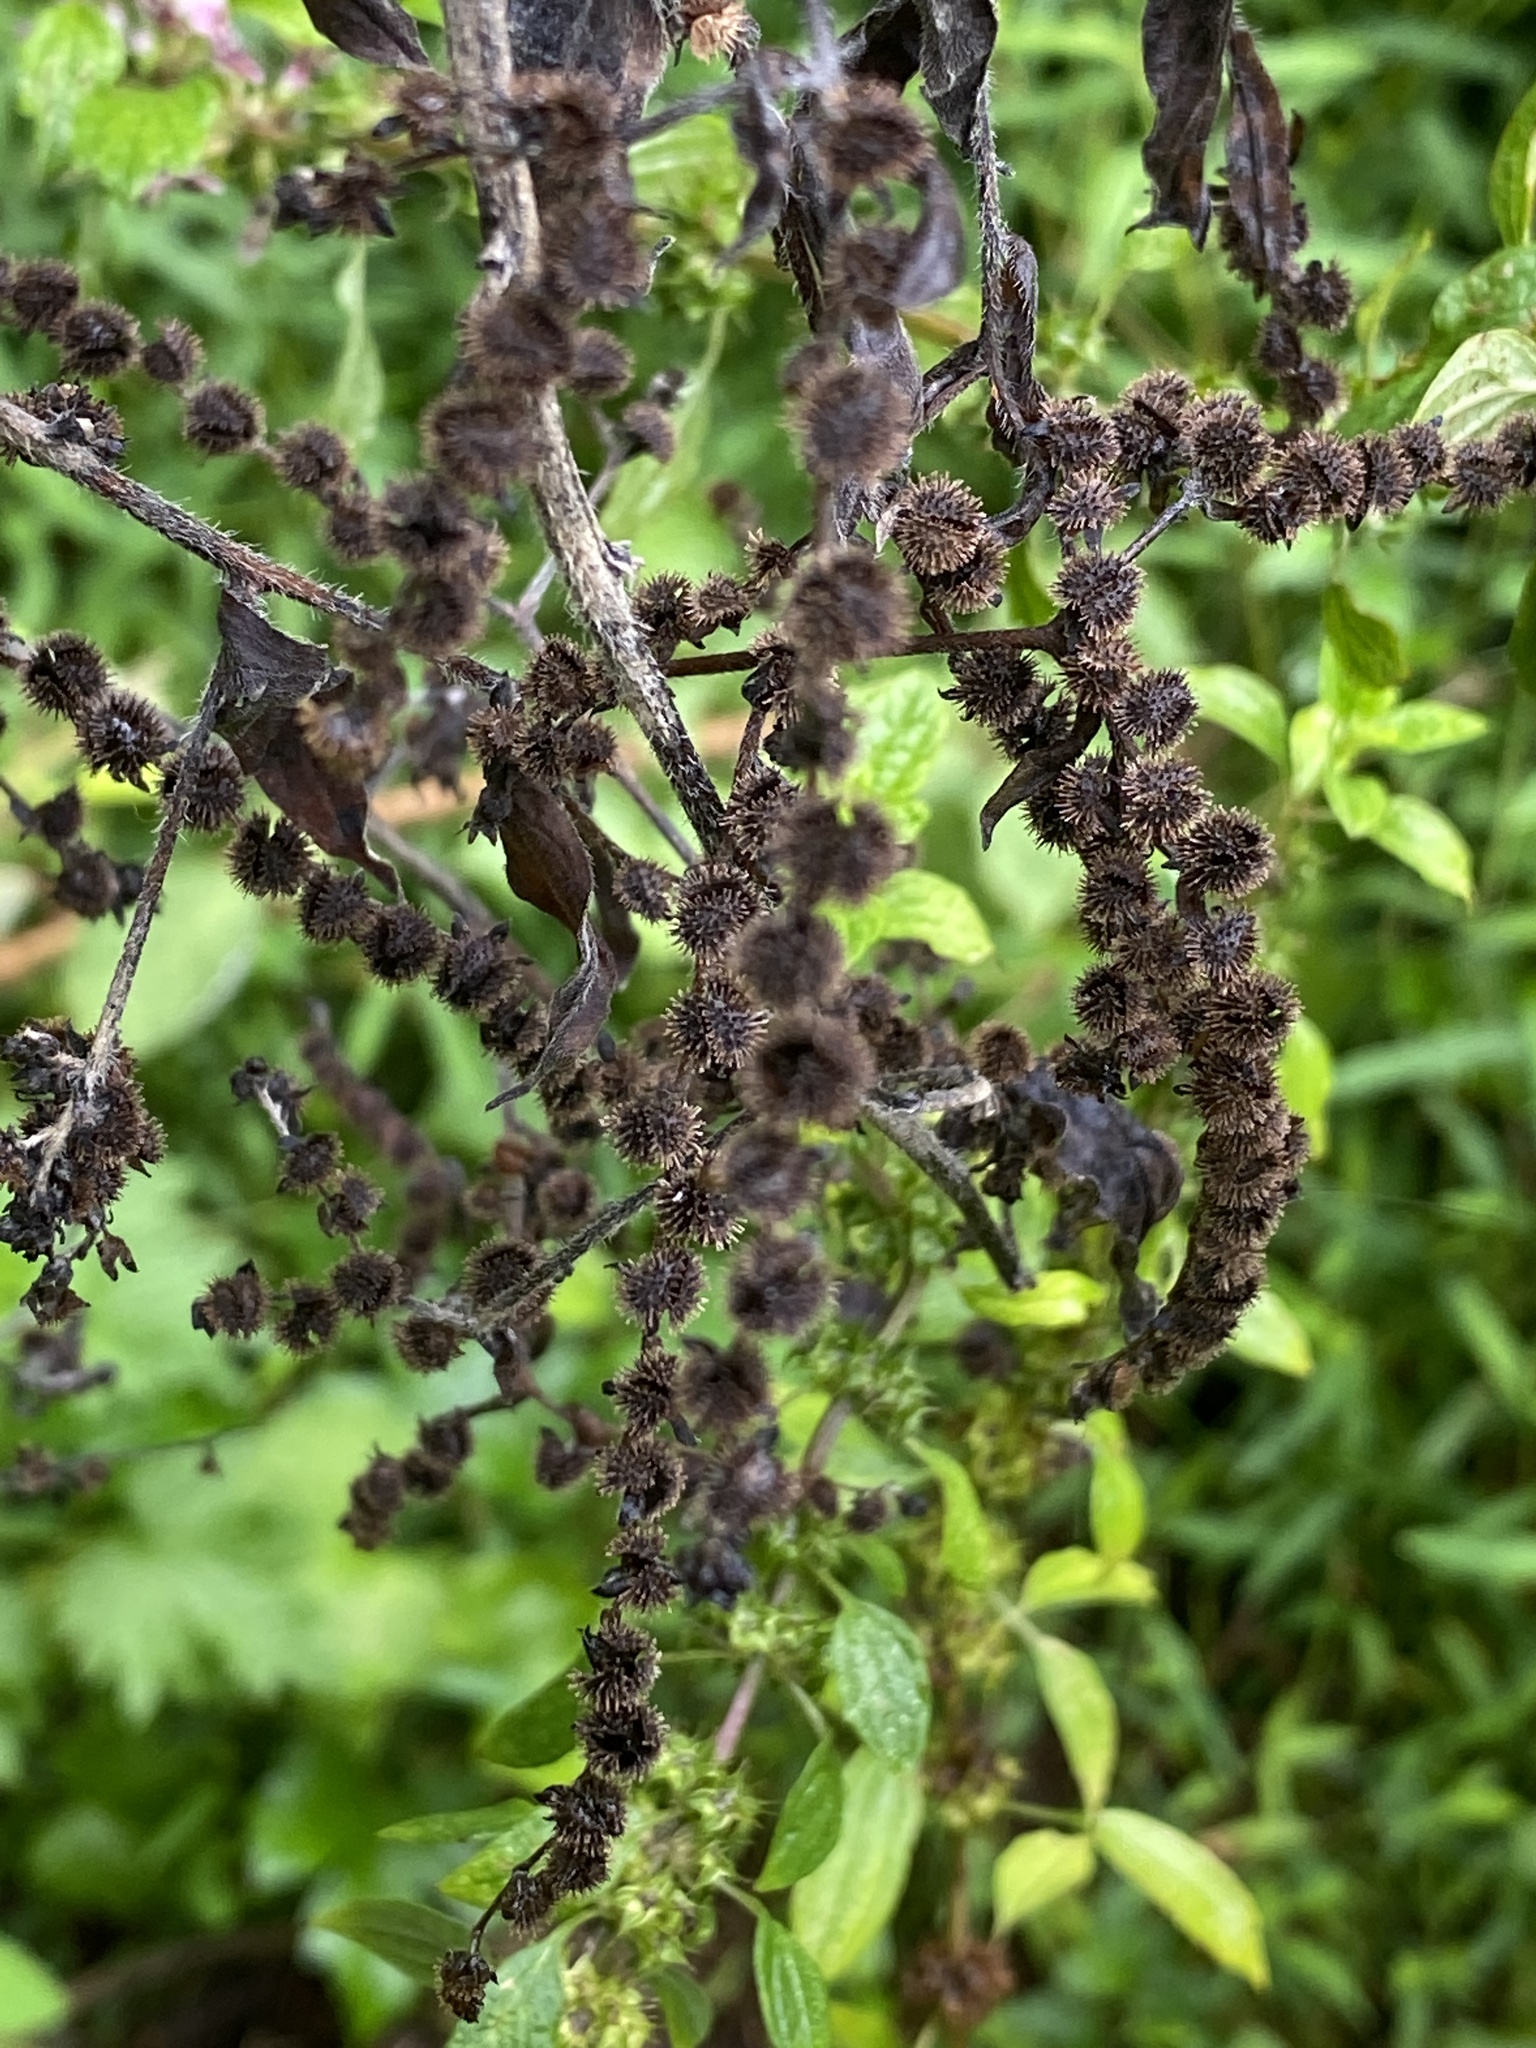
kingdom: Plantae
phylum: Tracheophyta
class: Magnoliopsida
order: Boraginales
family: Boraginaceae
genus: Hackelia
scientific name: Hackelia virginiana
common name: Beggar's-lice
